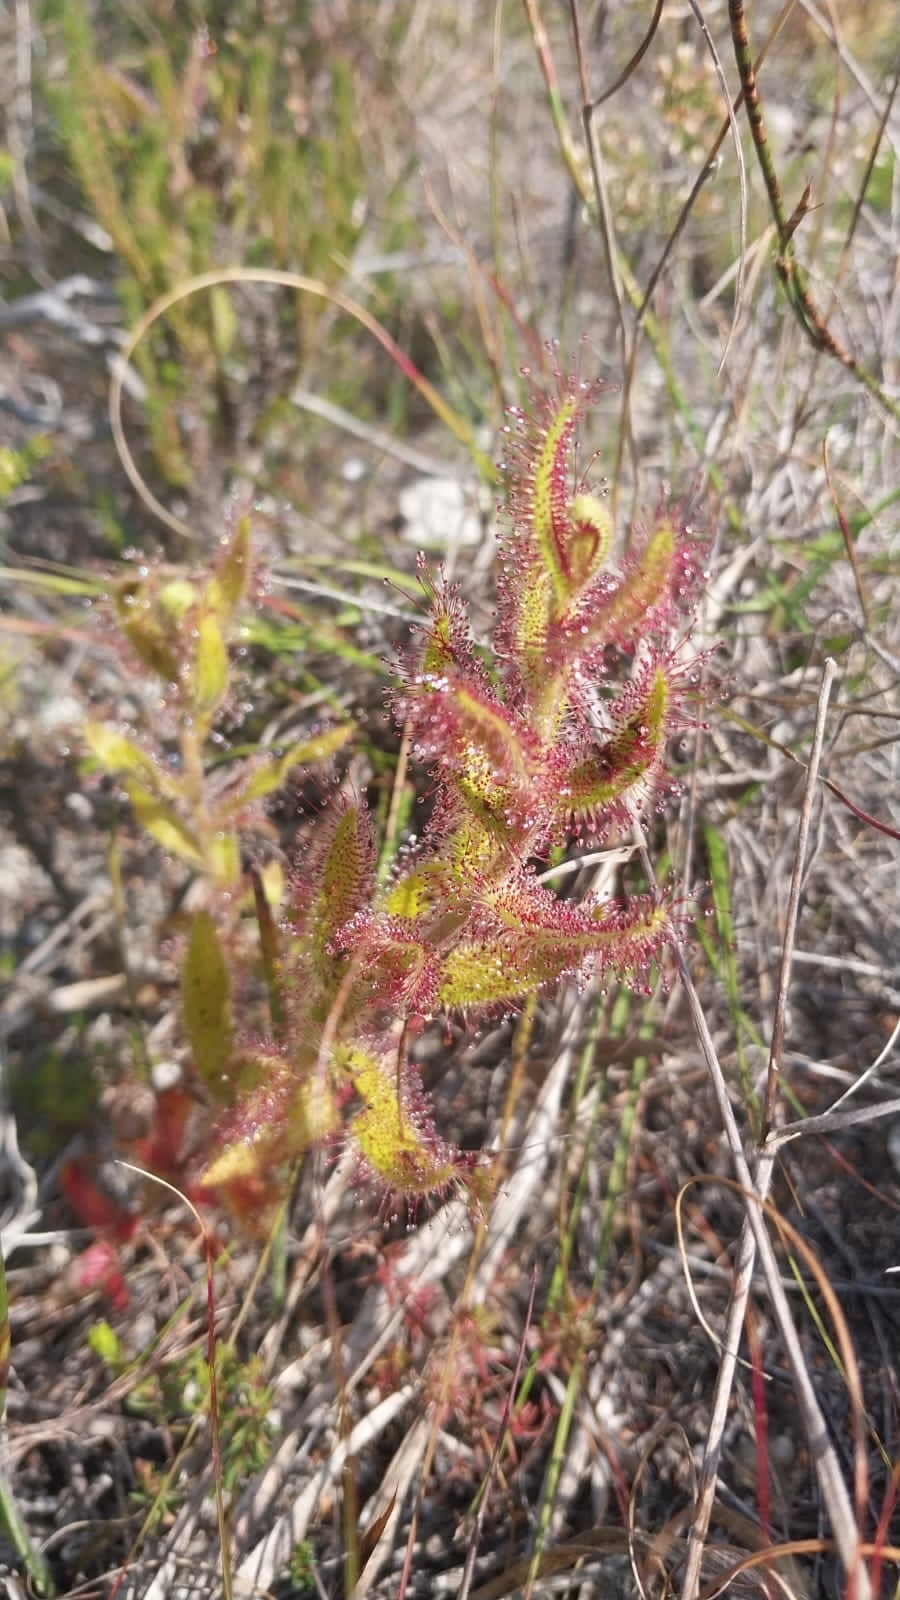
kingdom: Plantae
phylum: Tracheophyta
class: Magnoliopsida
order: Caryophyllales
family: Droseraceae
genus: Drosera
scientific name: Drosera cistiflora
